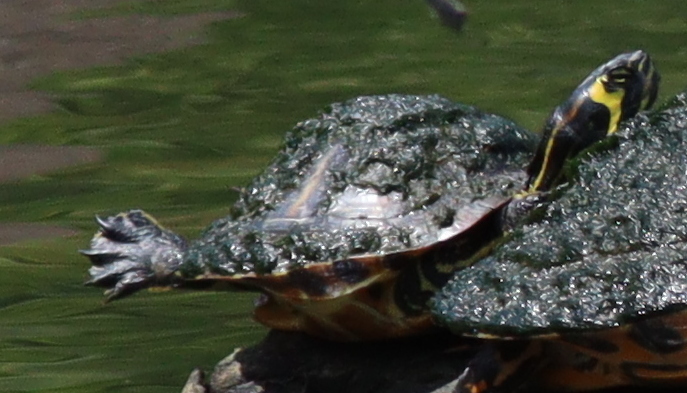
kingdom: Animalia
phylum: Chordata
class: Testudines
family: Emydidae
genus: Trachemys
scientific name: Trachemys scripta
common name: Slider
